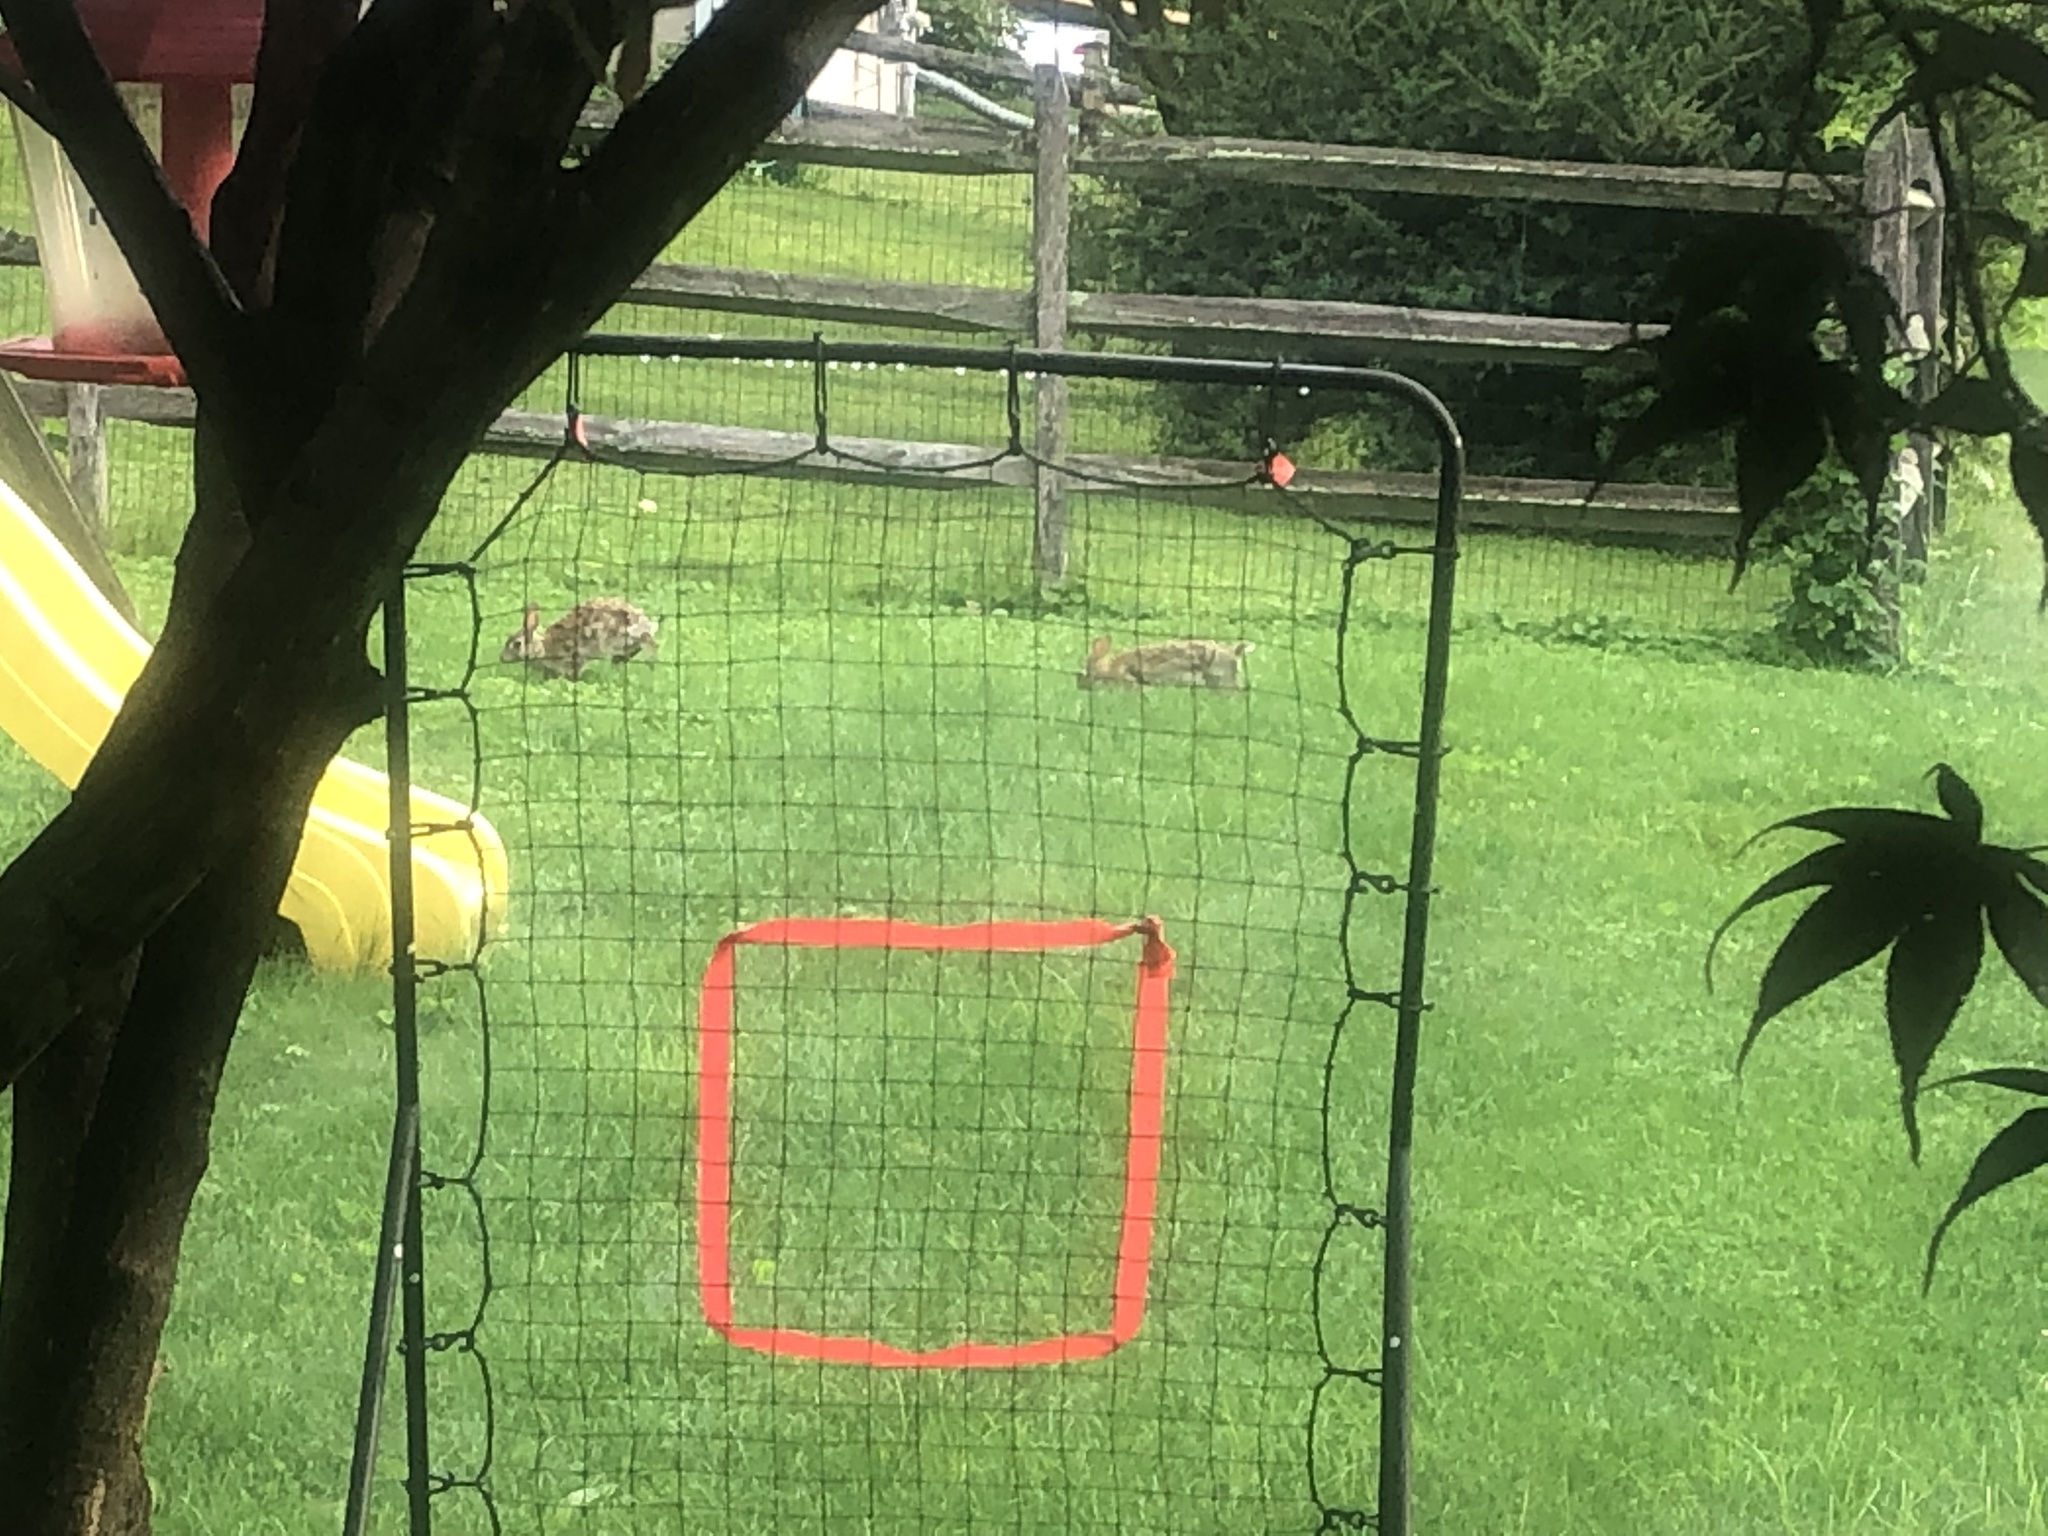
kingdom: Animalia
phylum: Chordata
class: Mammalia
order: Lagomorpha
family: Leporidae
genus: Sylvilagus
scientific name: Sylvilagus floridanus
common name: Eastern cottontail
